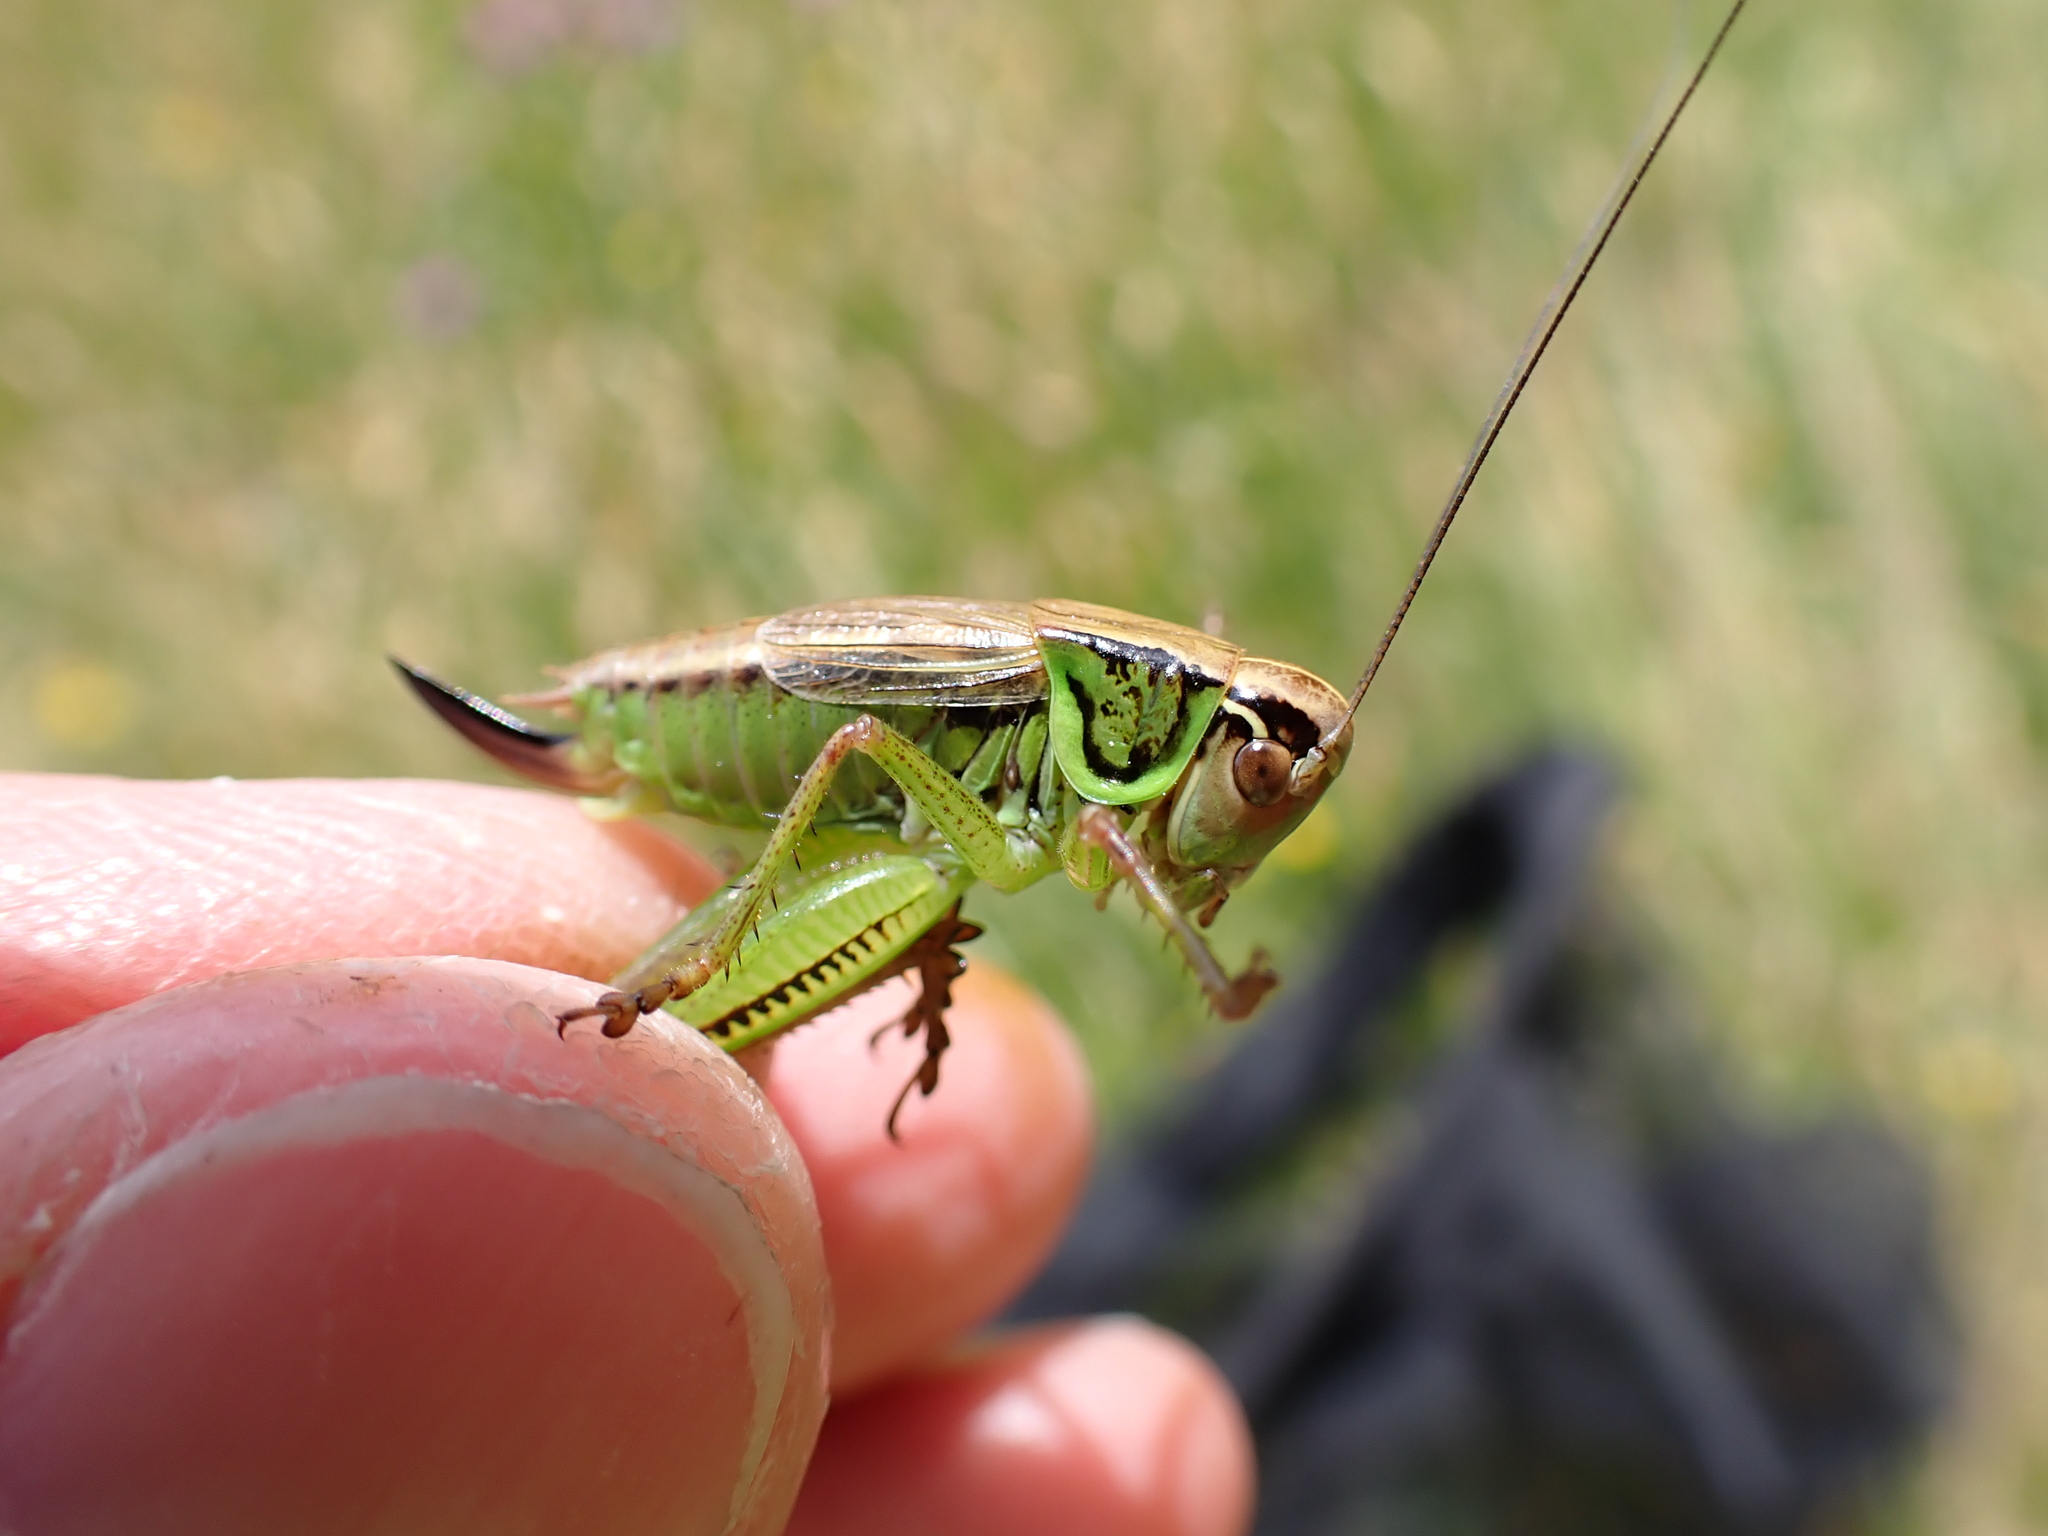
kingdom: Animalia
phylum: Arthropoda
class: Insecta
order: Orthoptera
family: Tettigoniidae
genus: Roeseliana
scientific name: Roeseliana roeselii
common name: Roesel's bush cricket
